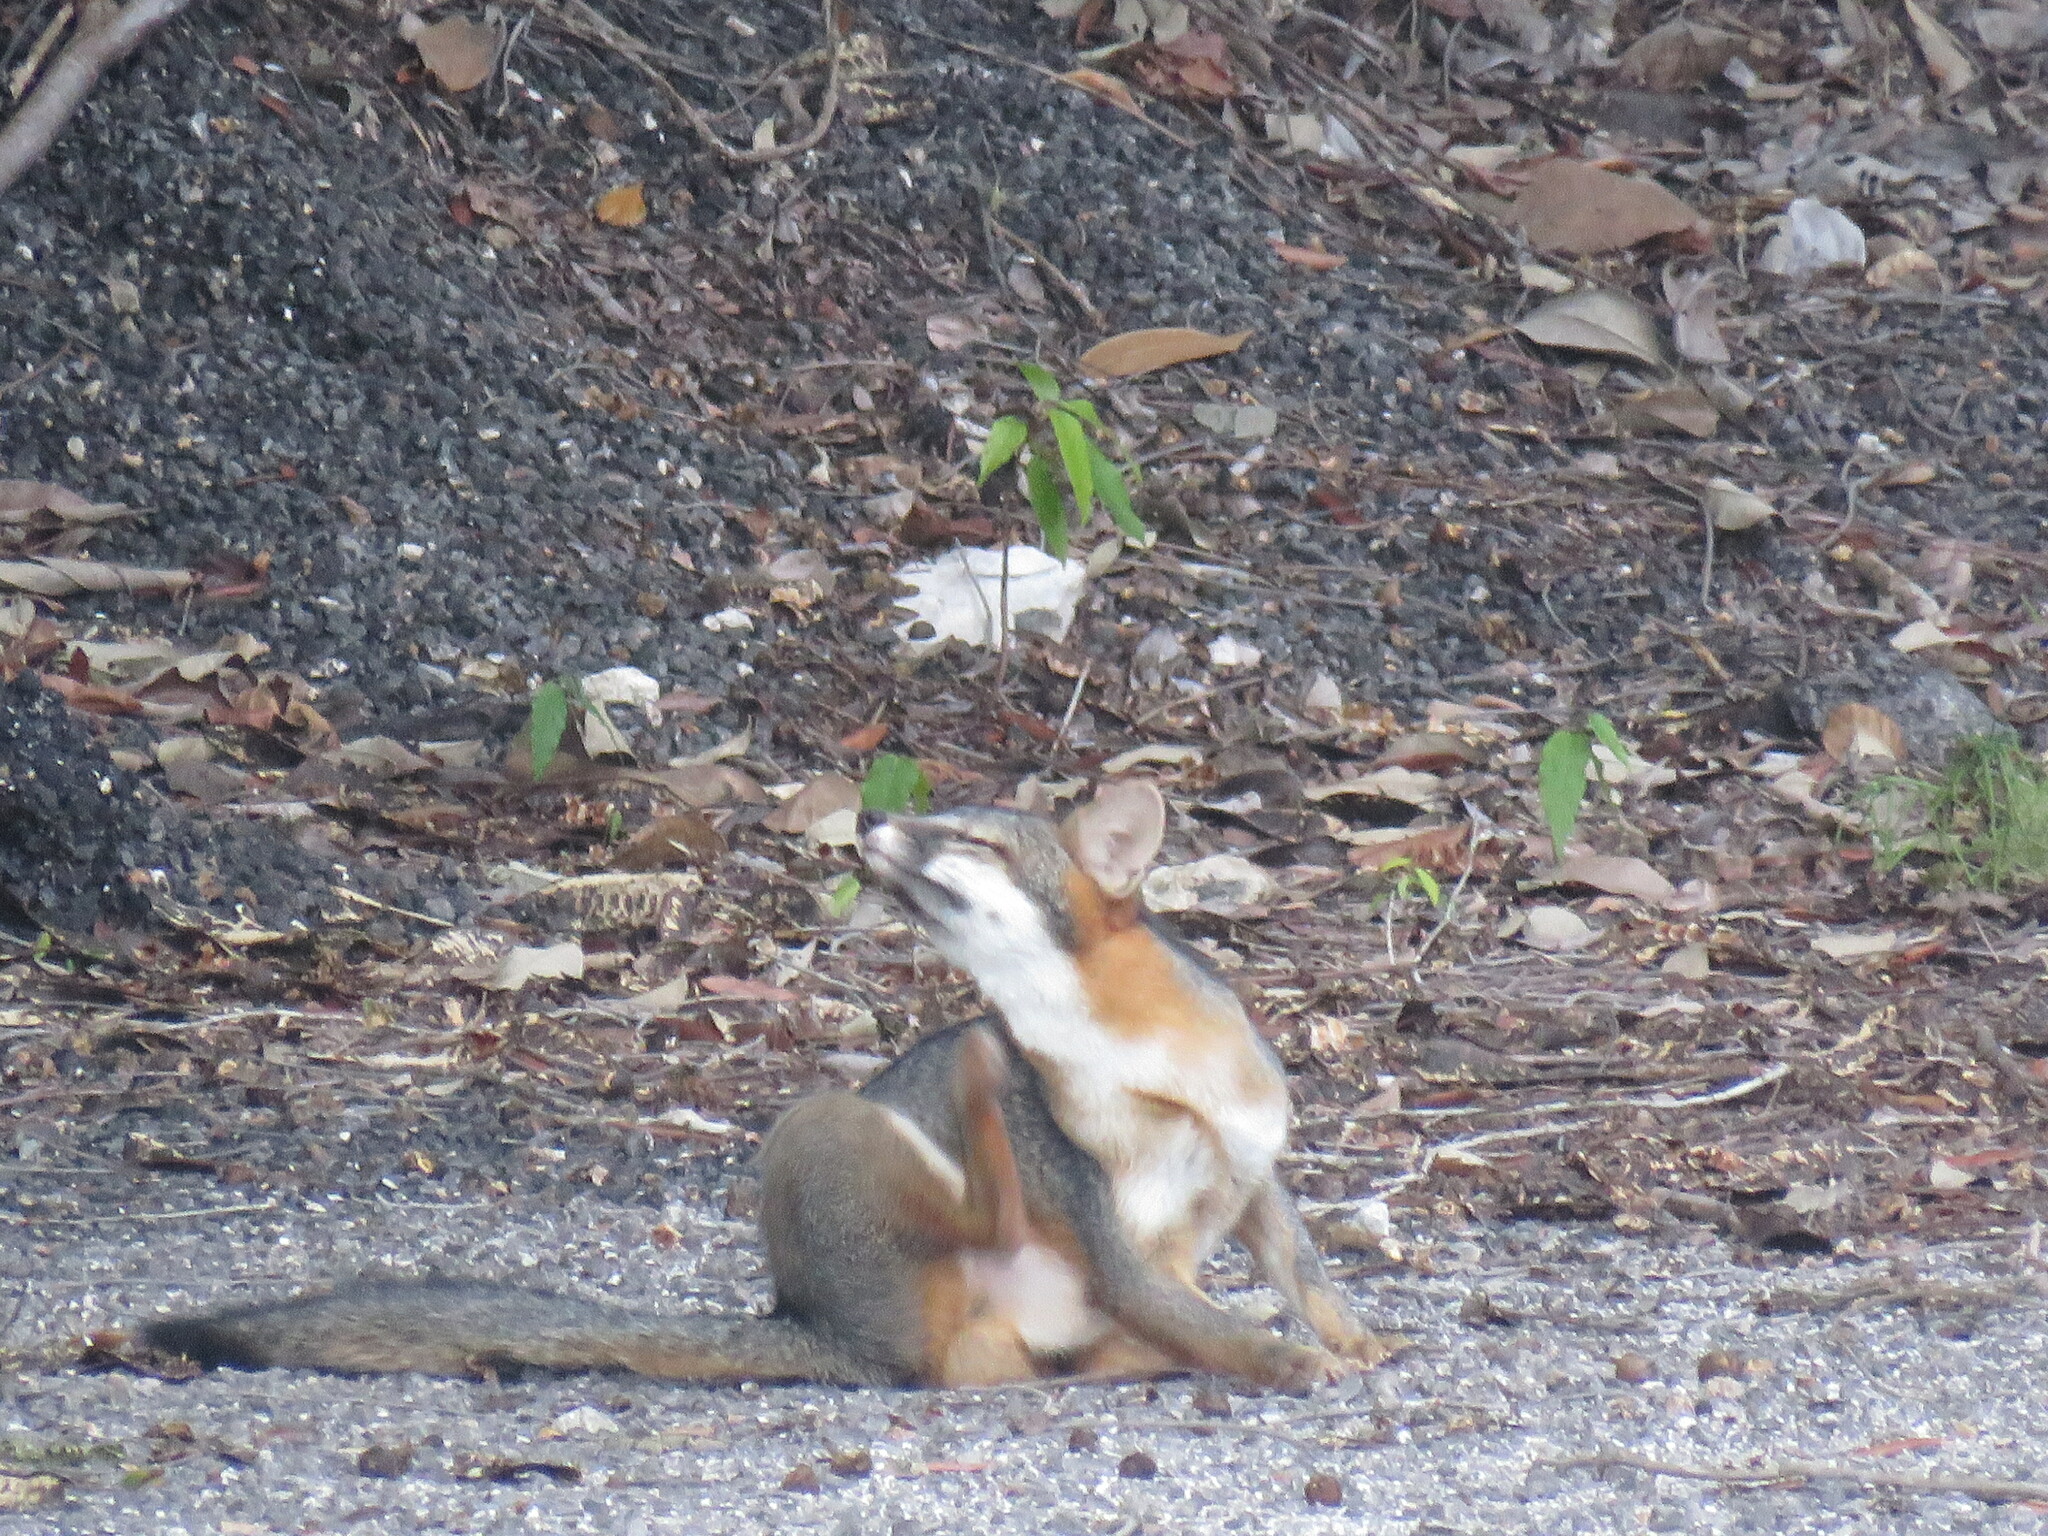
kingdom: Animalia
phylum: Chordata
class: Mammalia
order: Carnivora
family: Canidae
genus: Urocyon
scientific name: Urocyon cinereoargenteus
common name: Gray fox
